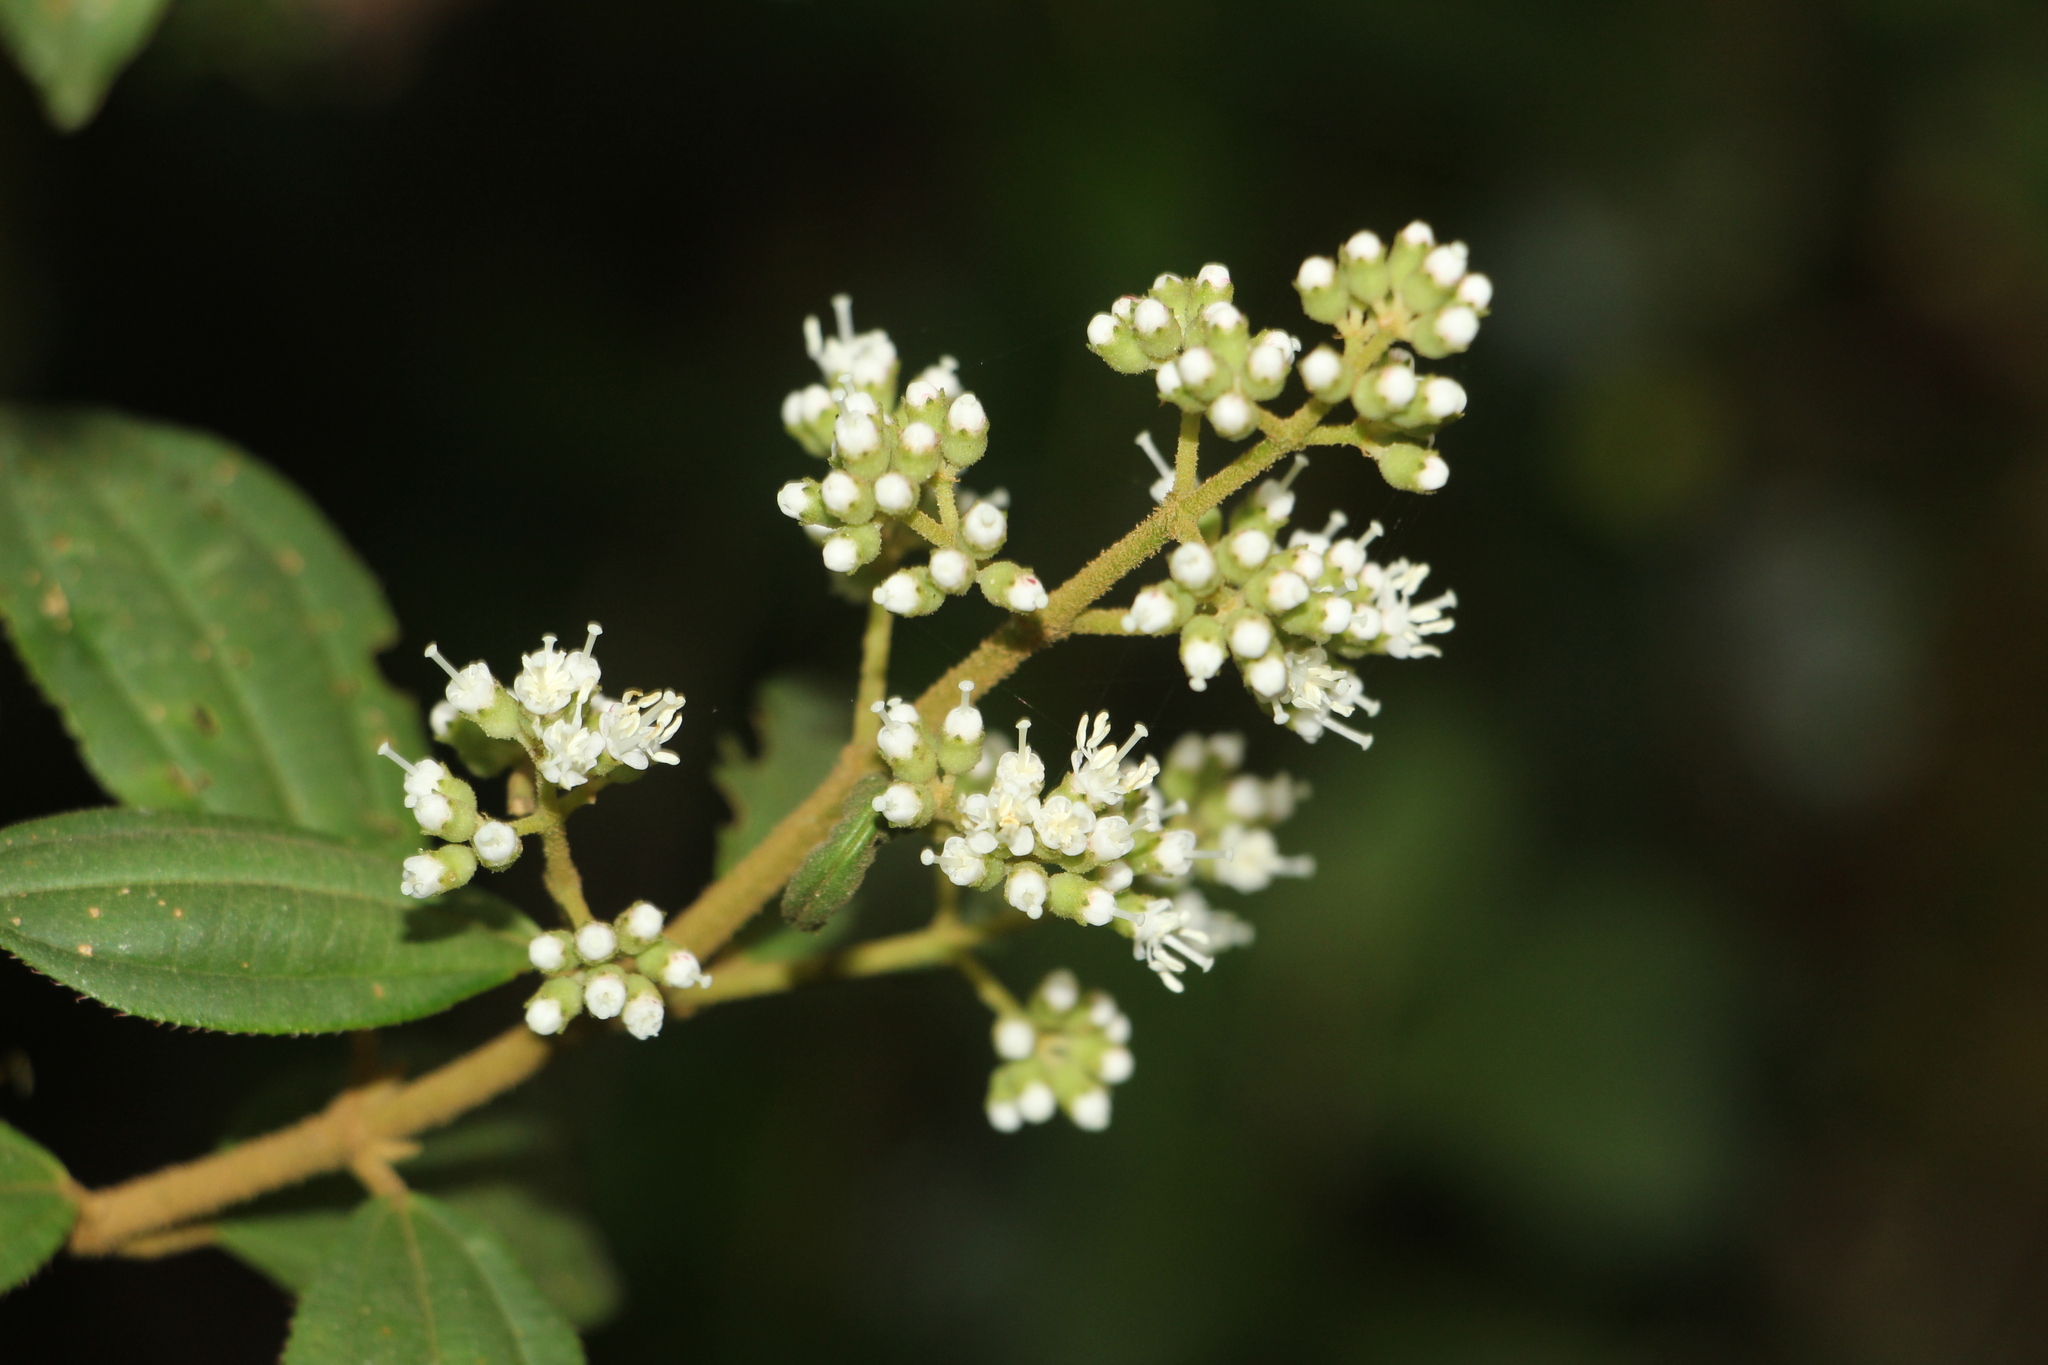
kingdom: Plantae
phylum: Tracheophyta
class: Magnoliopsida
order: Myrtales
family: Melastomataceae
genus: Miconia
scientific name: Miconia cataractae
